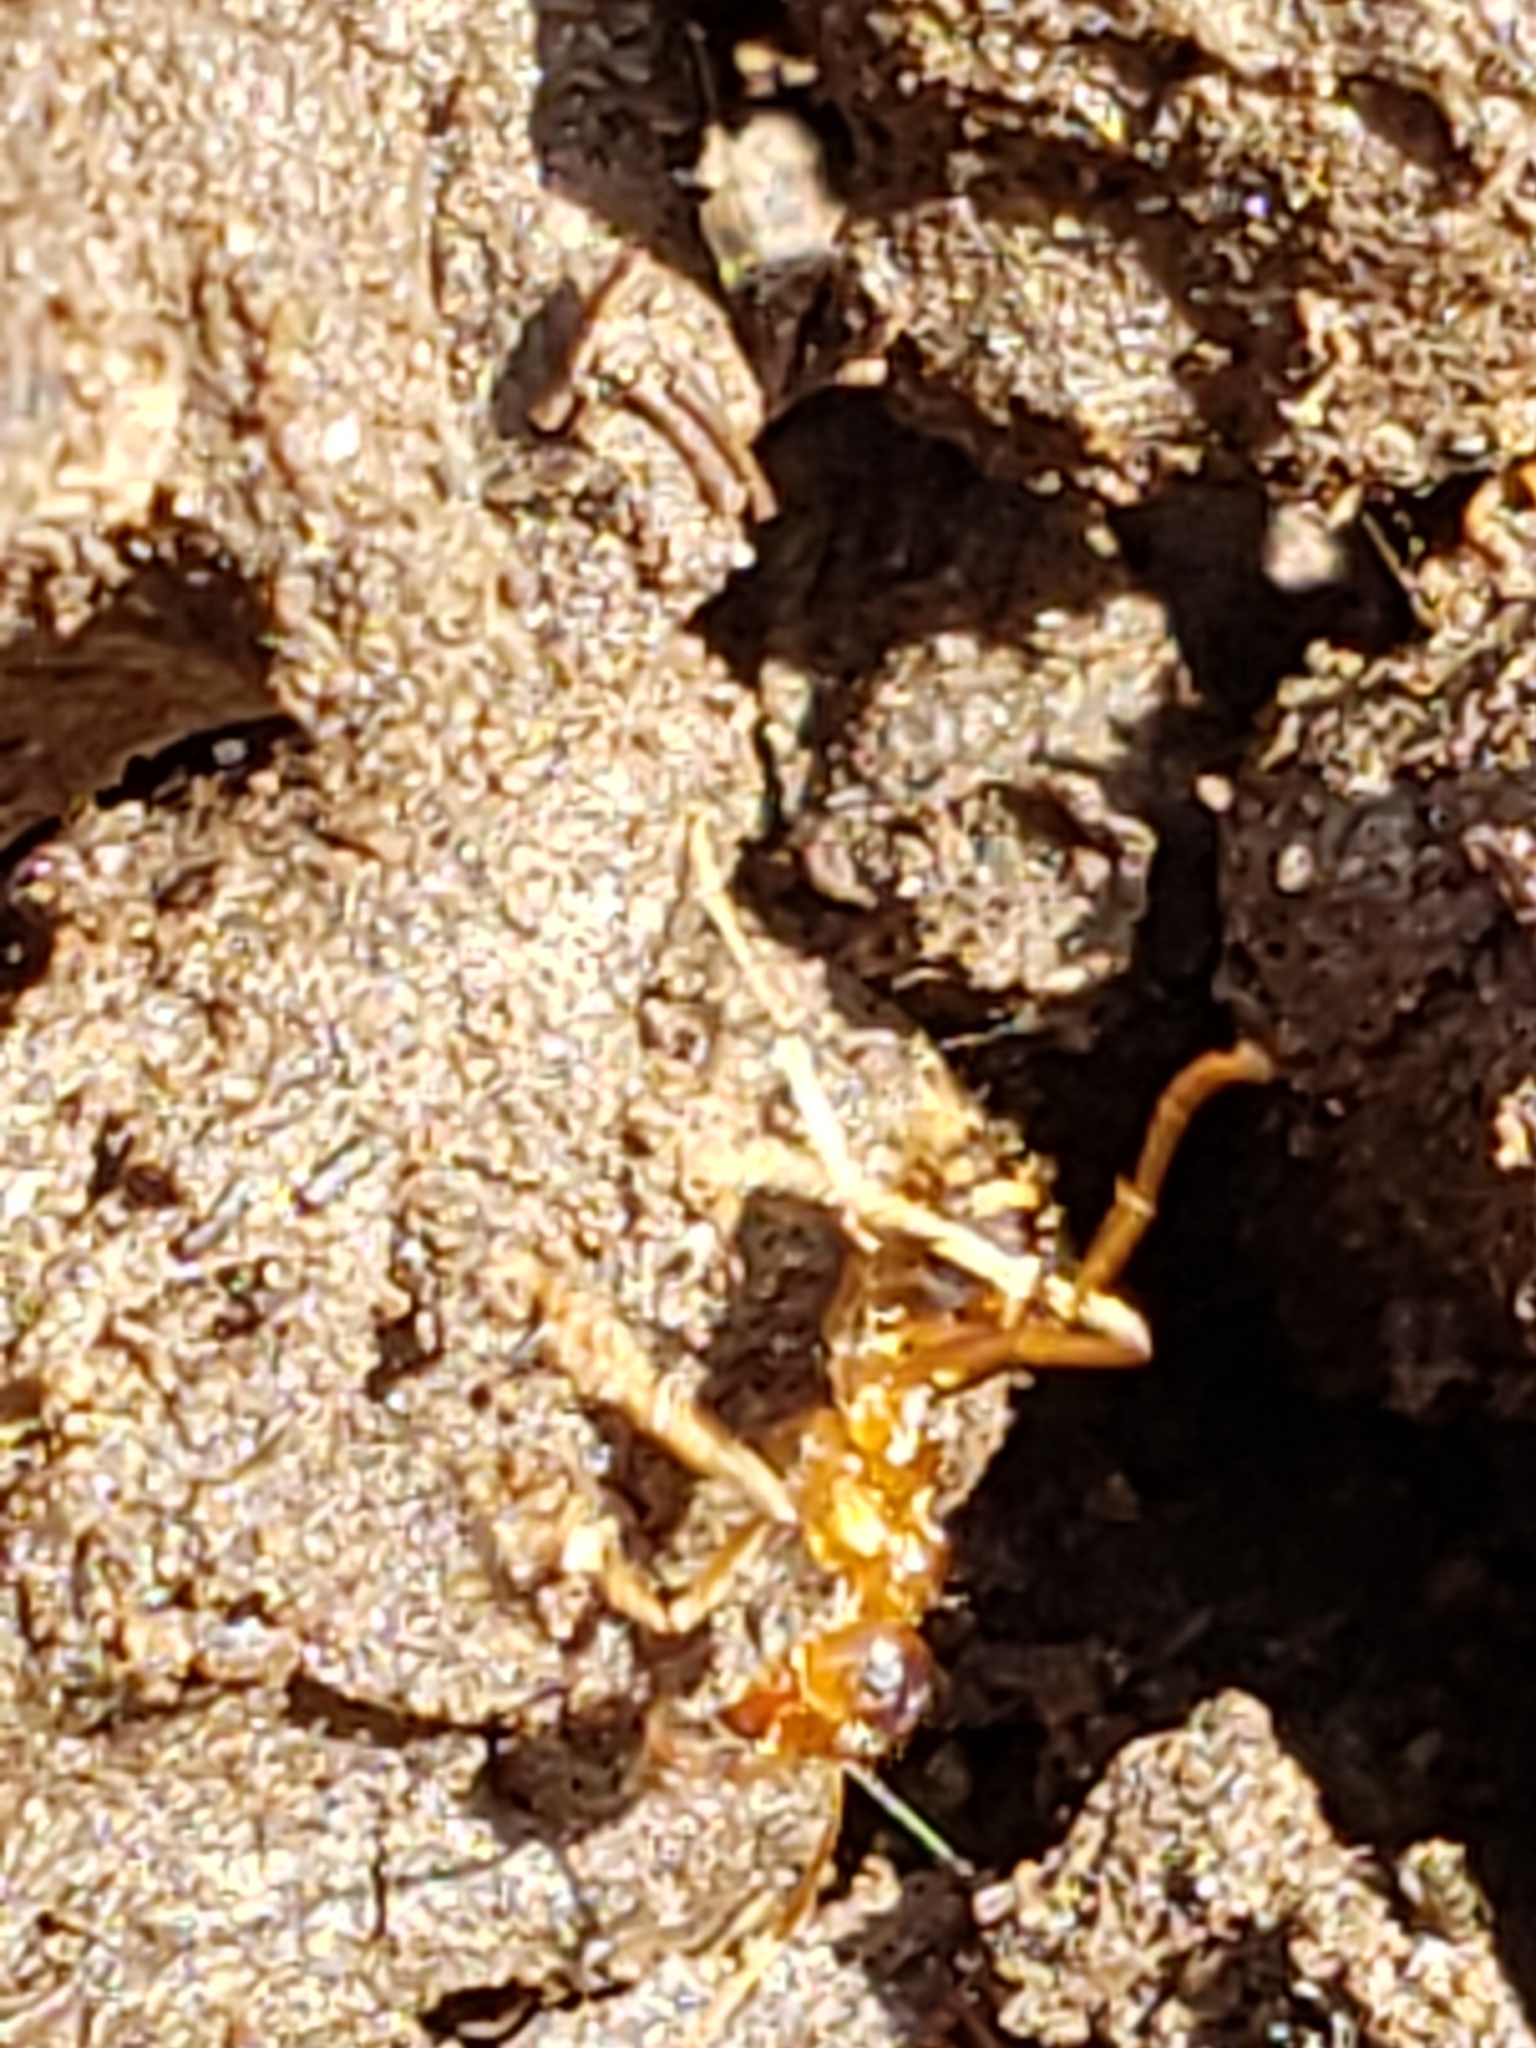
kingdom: Animalia
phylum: Arthropoda
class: Insecta
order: Hymenoptera
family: Formicidae
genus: Prenolepis
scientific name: Prenolepis imparis
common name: Small honey ant
